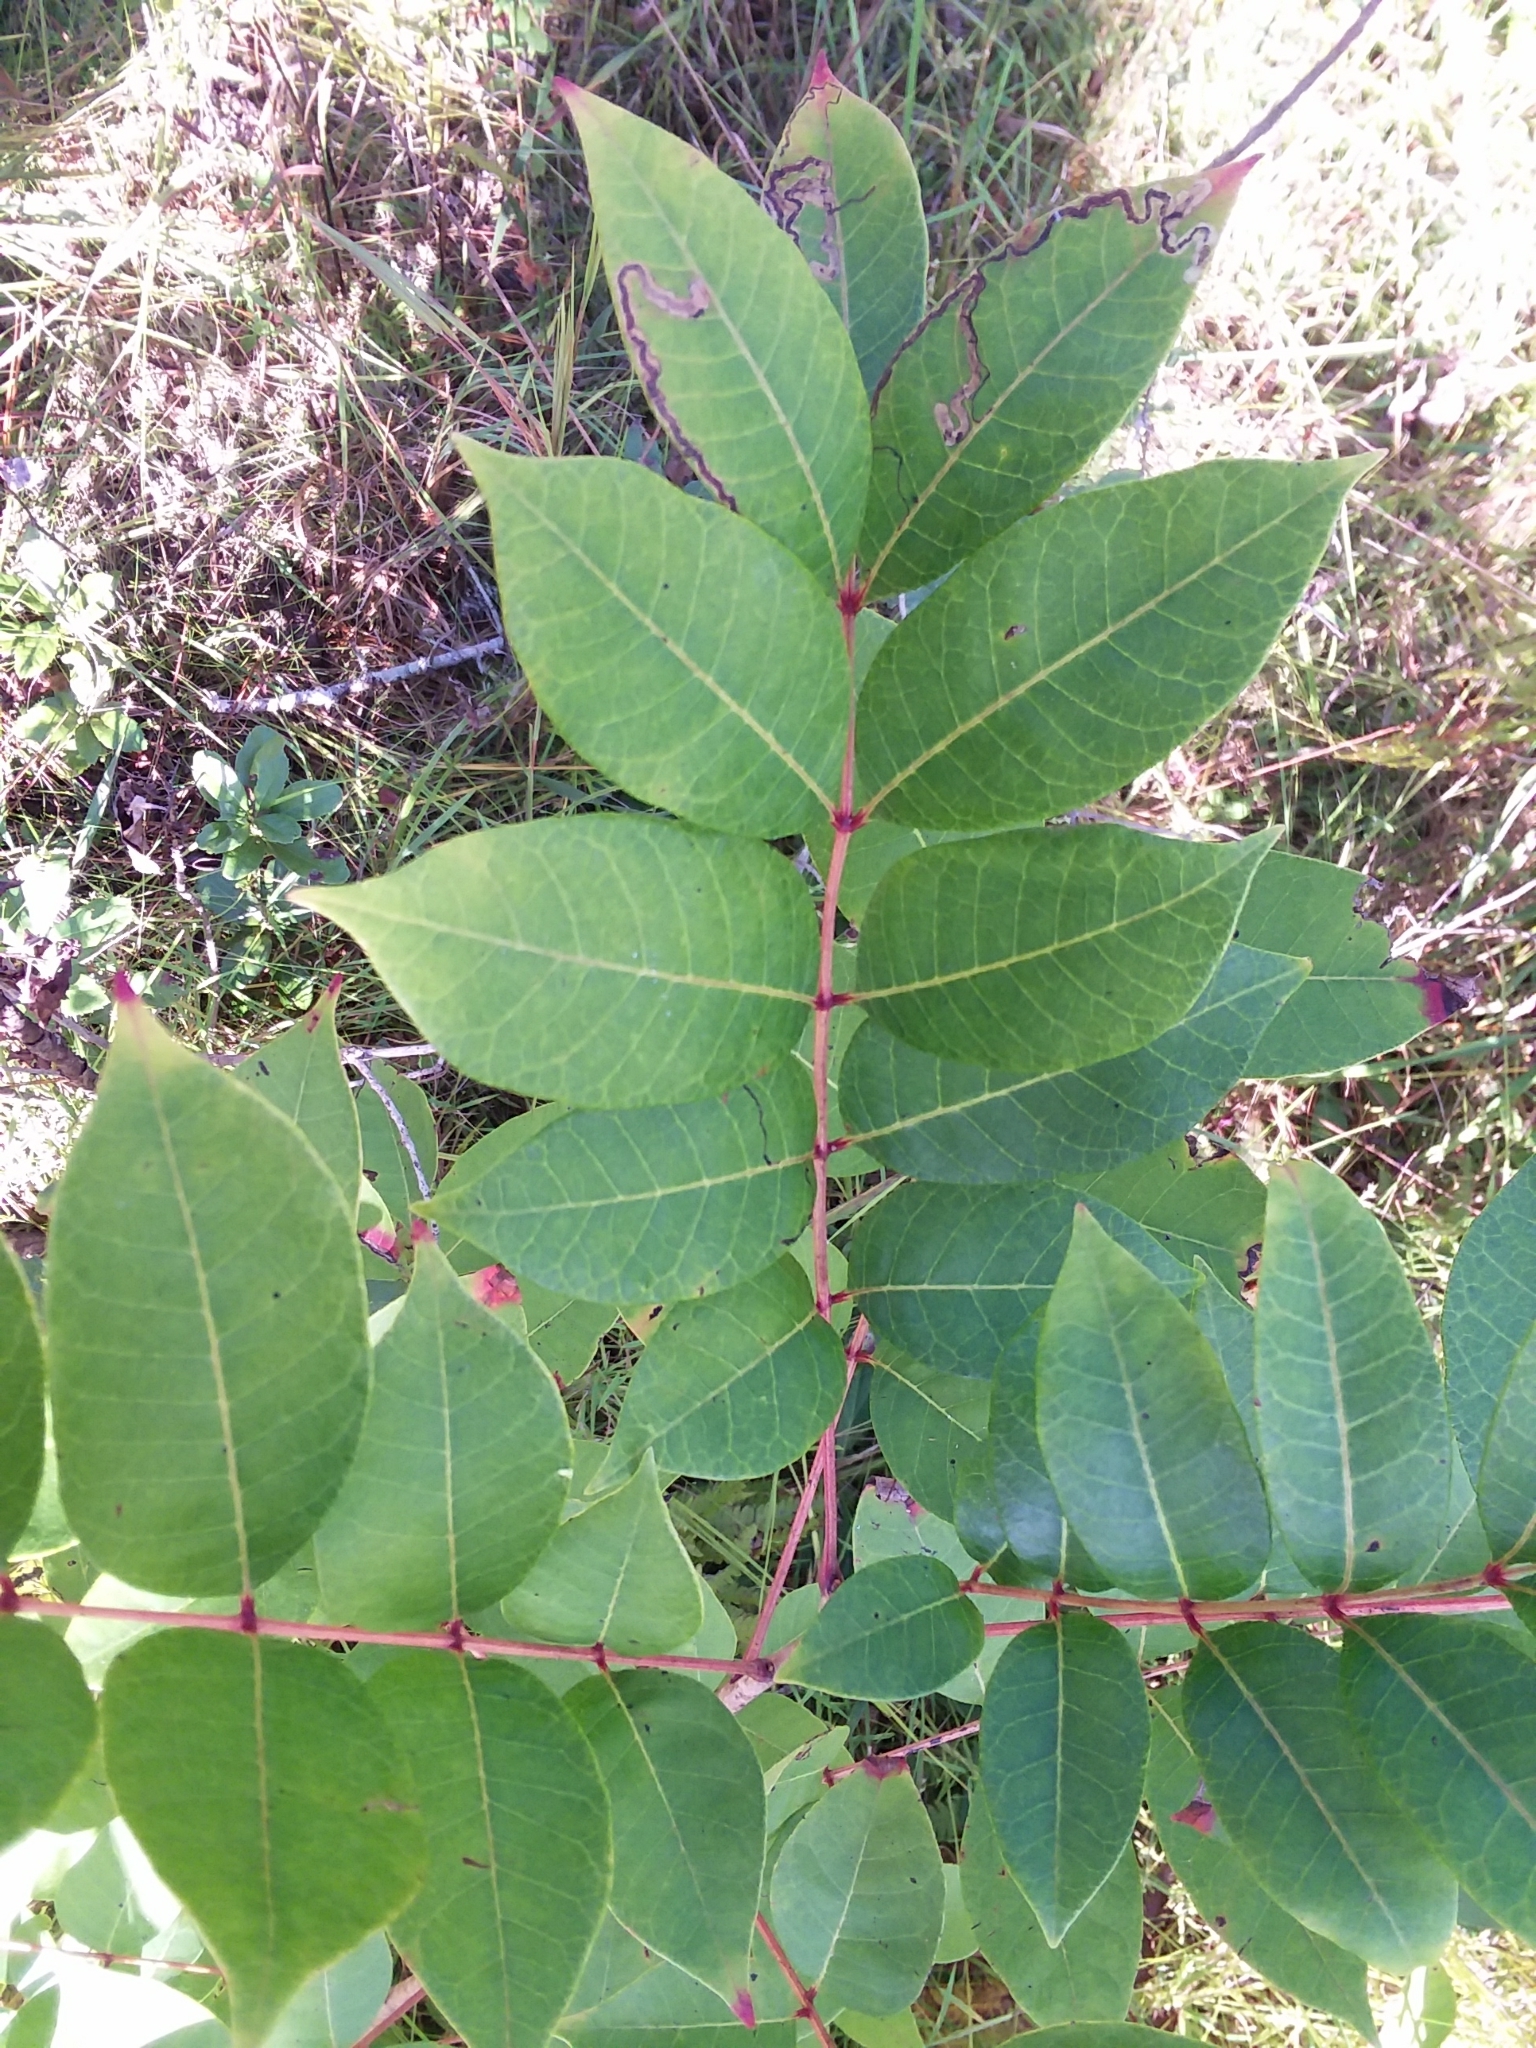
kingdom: Plantae
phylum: Tracheophyta
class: Magnoliopsida
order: Sapindales
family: Anacardiaceae
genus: Toxicodendron
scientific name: Toxicodendron vernix
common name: Poison sumac
